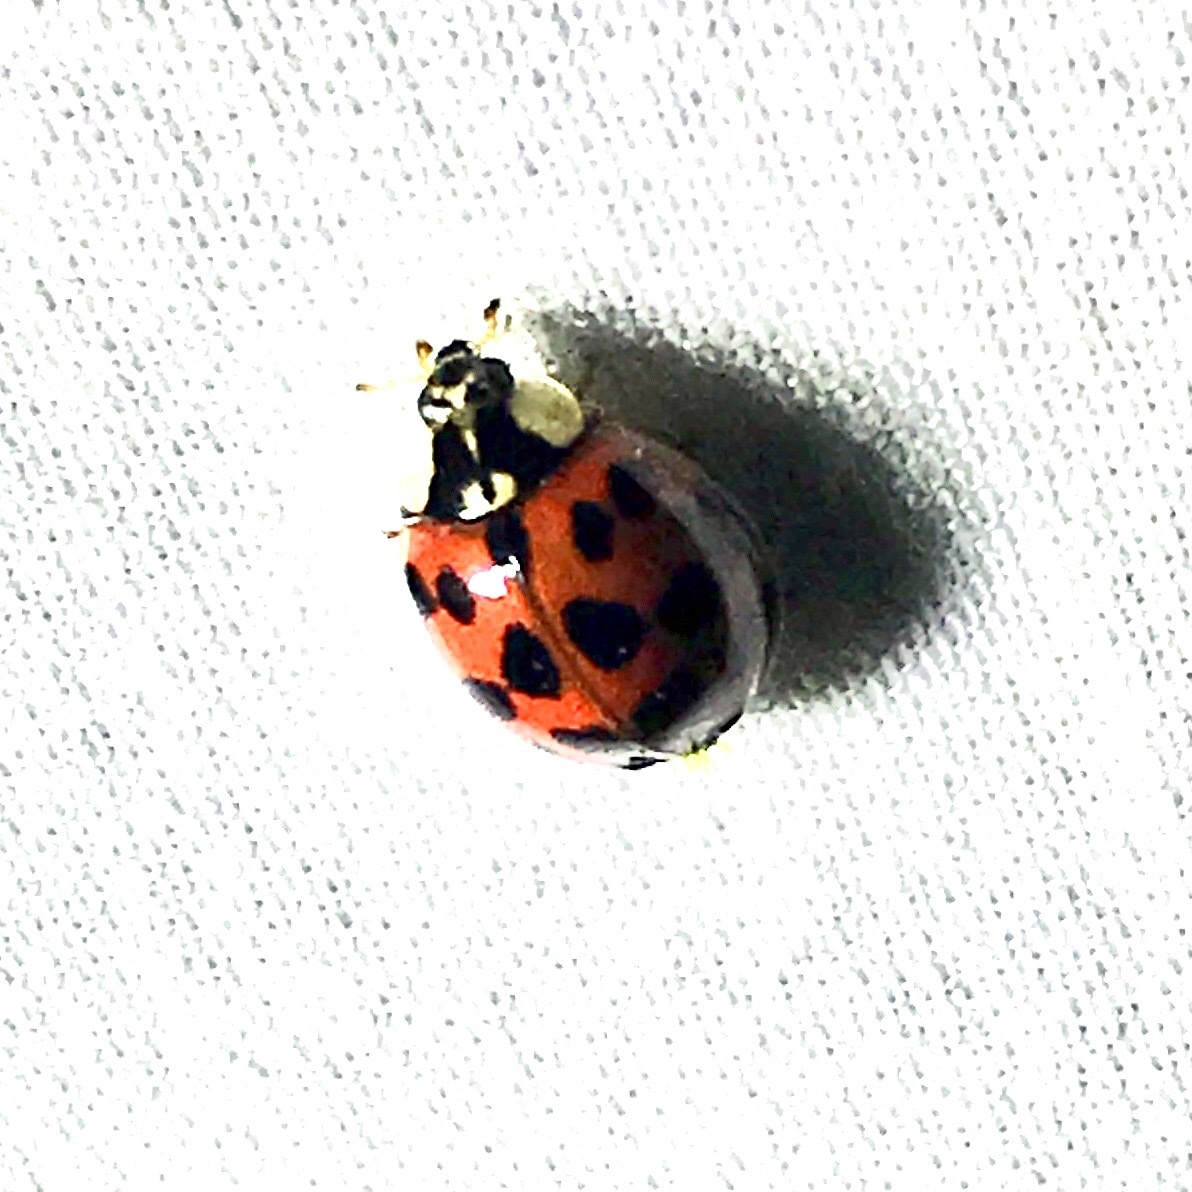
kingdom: Animalia
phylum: Arthropoda
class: Insecta
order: Coleoptera
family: Coccinellidae
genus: Harmonia
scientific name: Harmonia axyridis
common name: Harlequin ladybird
